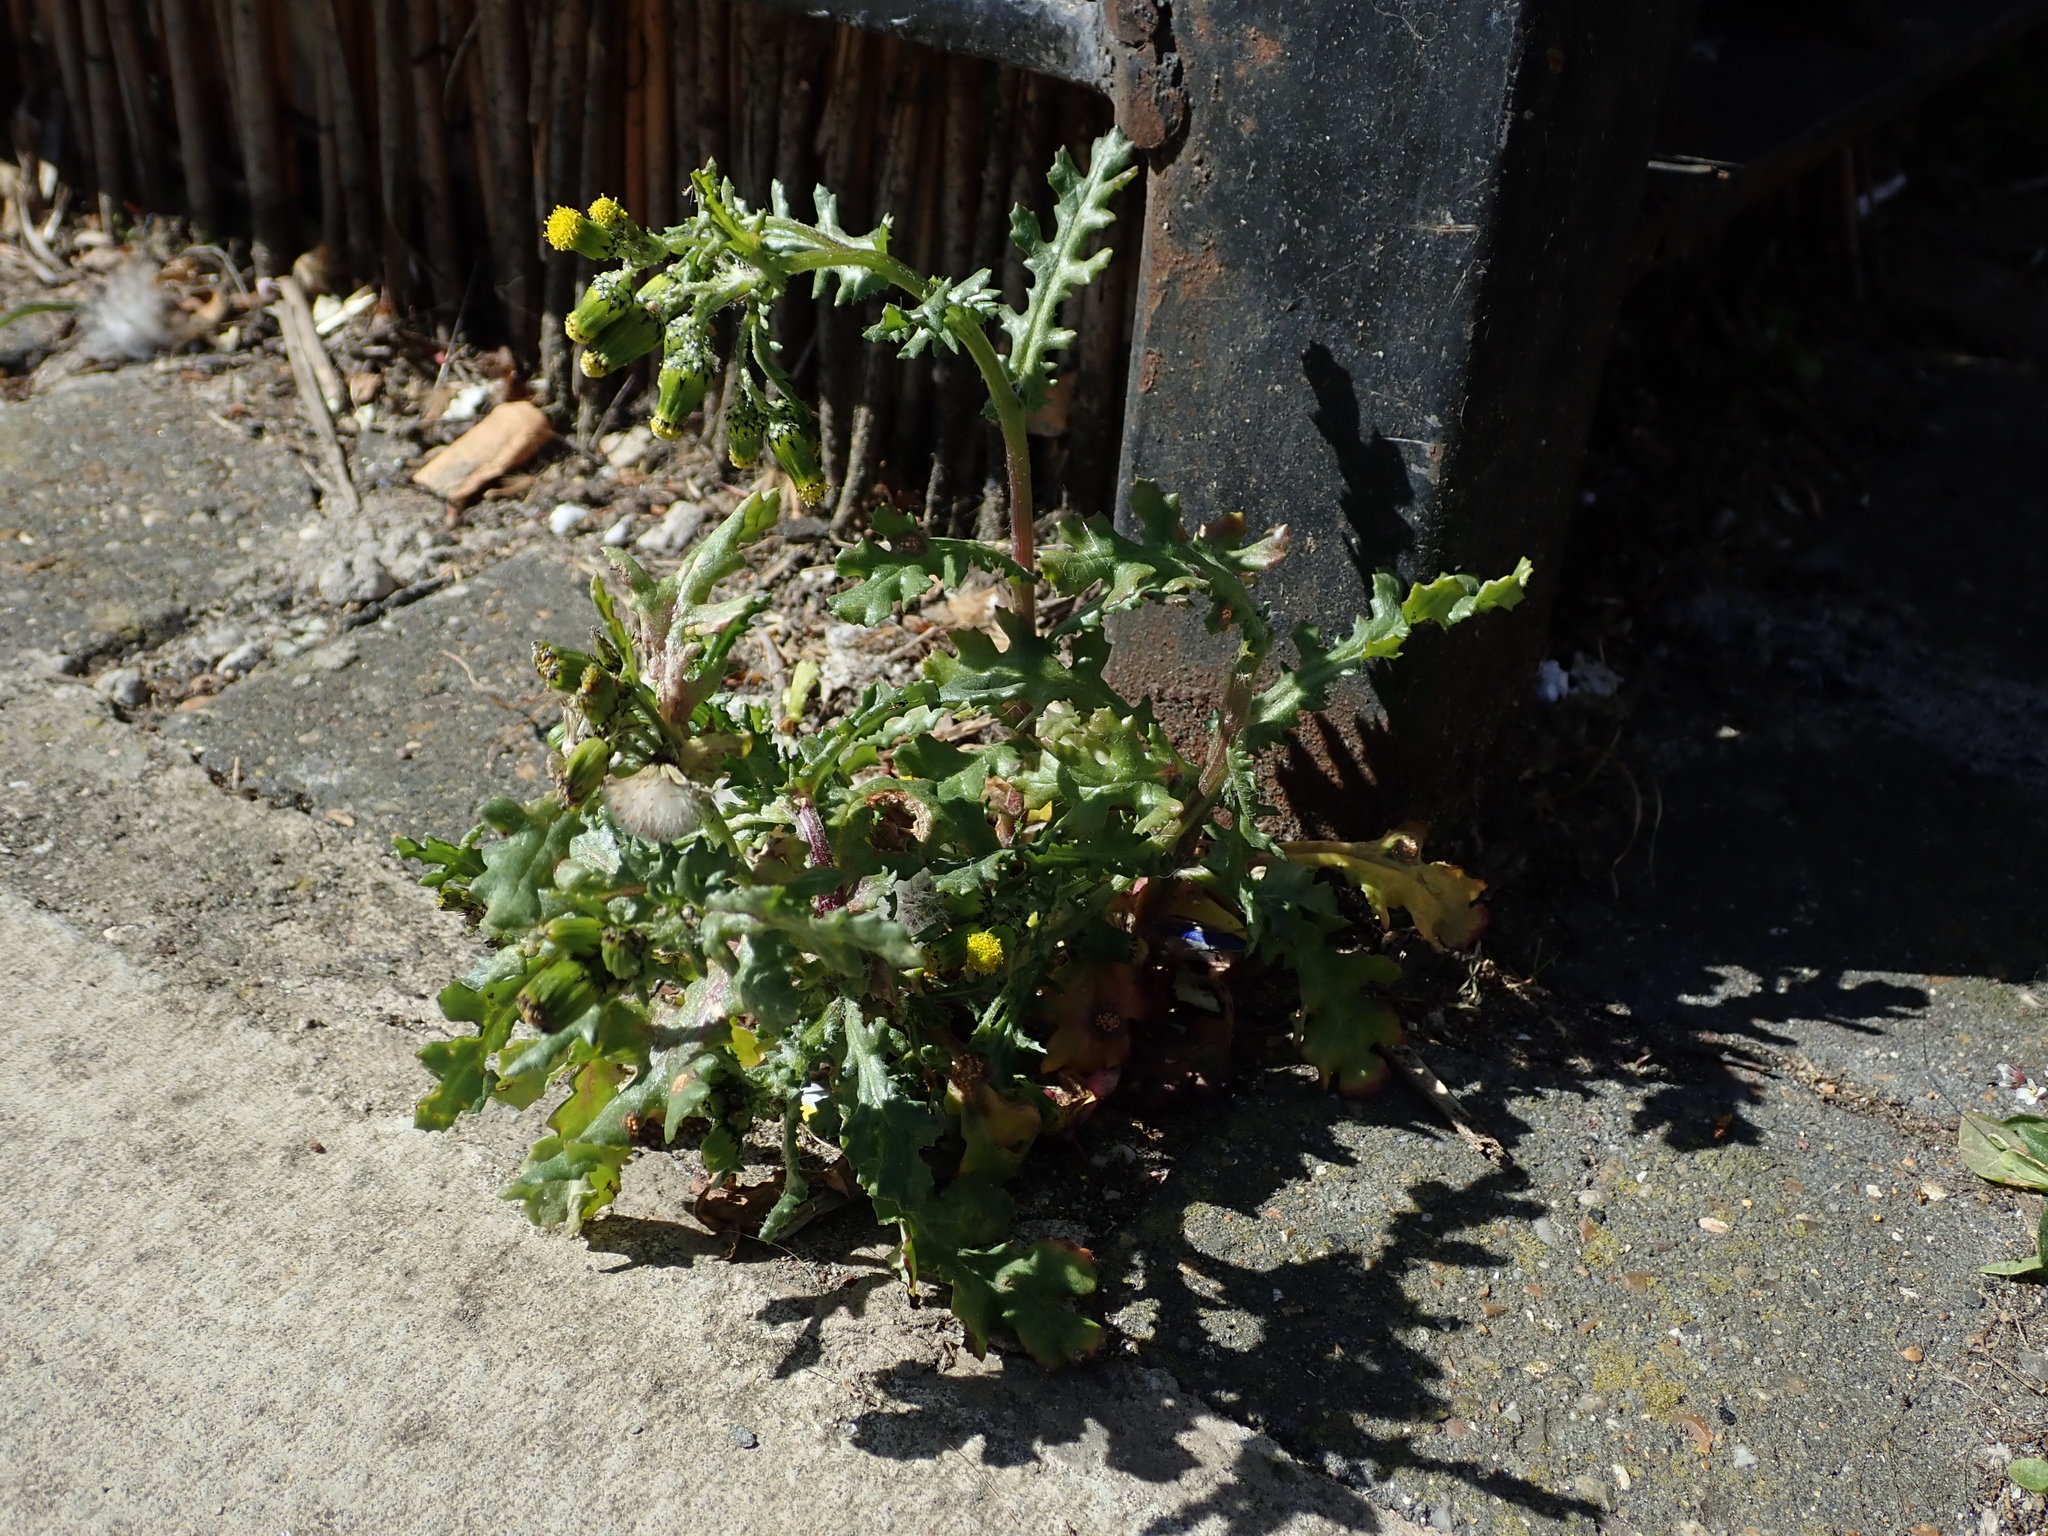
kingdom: Plantae
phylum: Tracheophyta
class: Magnoliopsida
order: Asterales
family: Asteraceae
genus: Senecio
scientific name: Senecio vulgaris
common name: Old-man-in-the-spring
